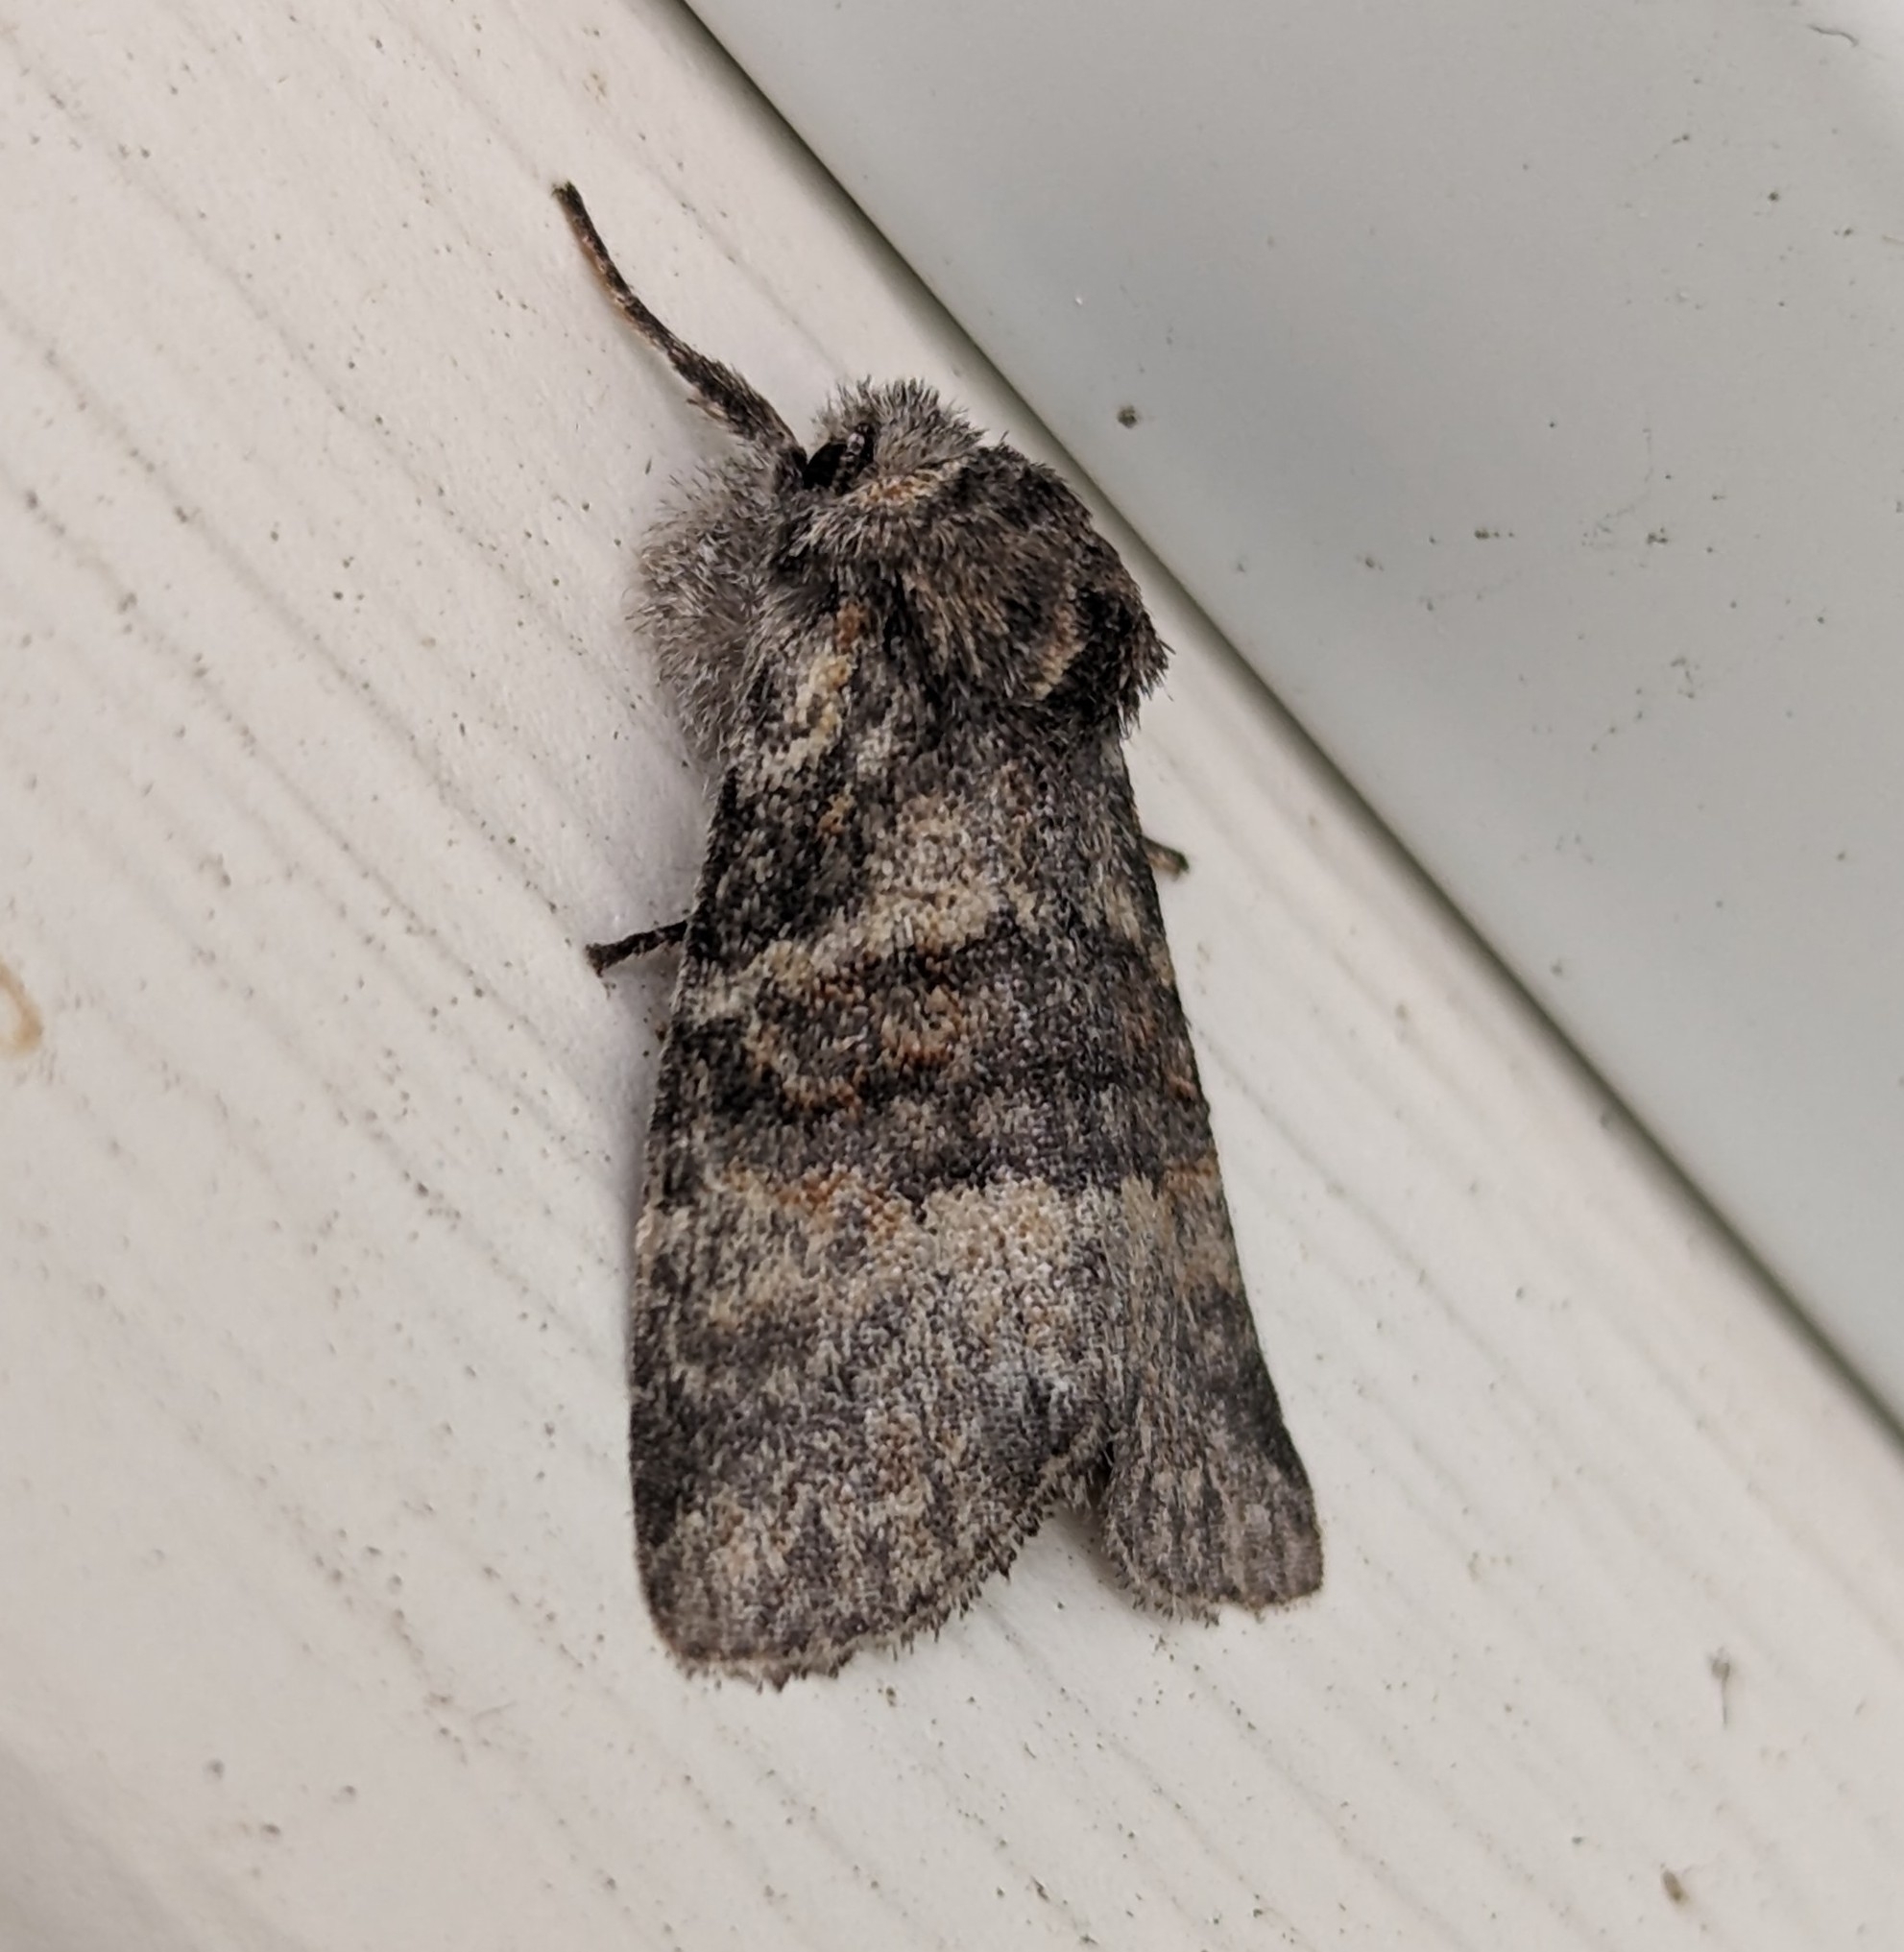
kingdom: Animalia
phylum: Arthropoda
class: Insecta
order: Lepidoptera
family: Noctuidae
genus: Brachylomia
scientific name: Brachylomia populi
